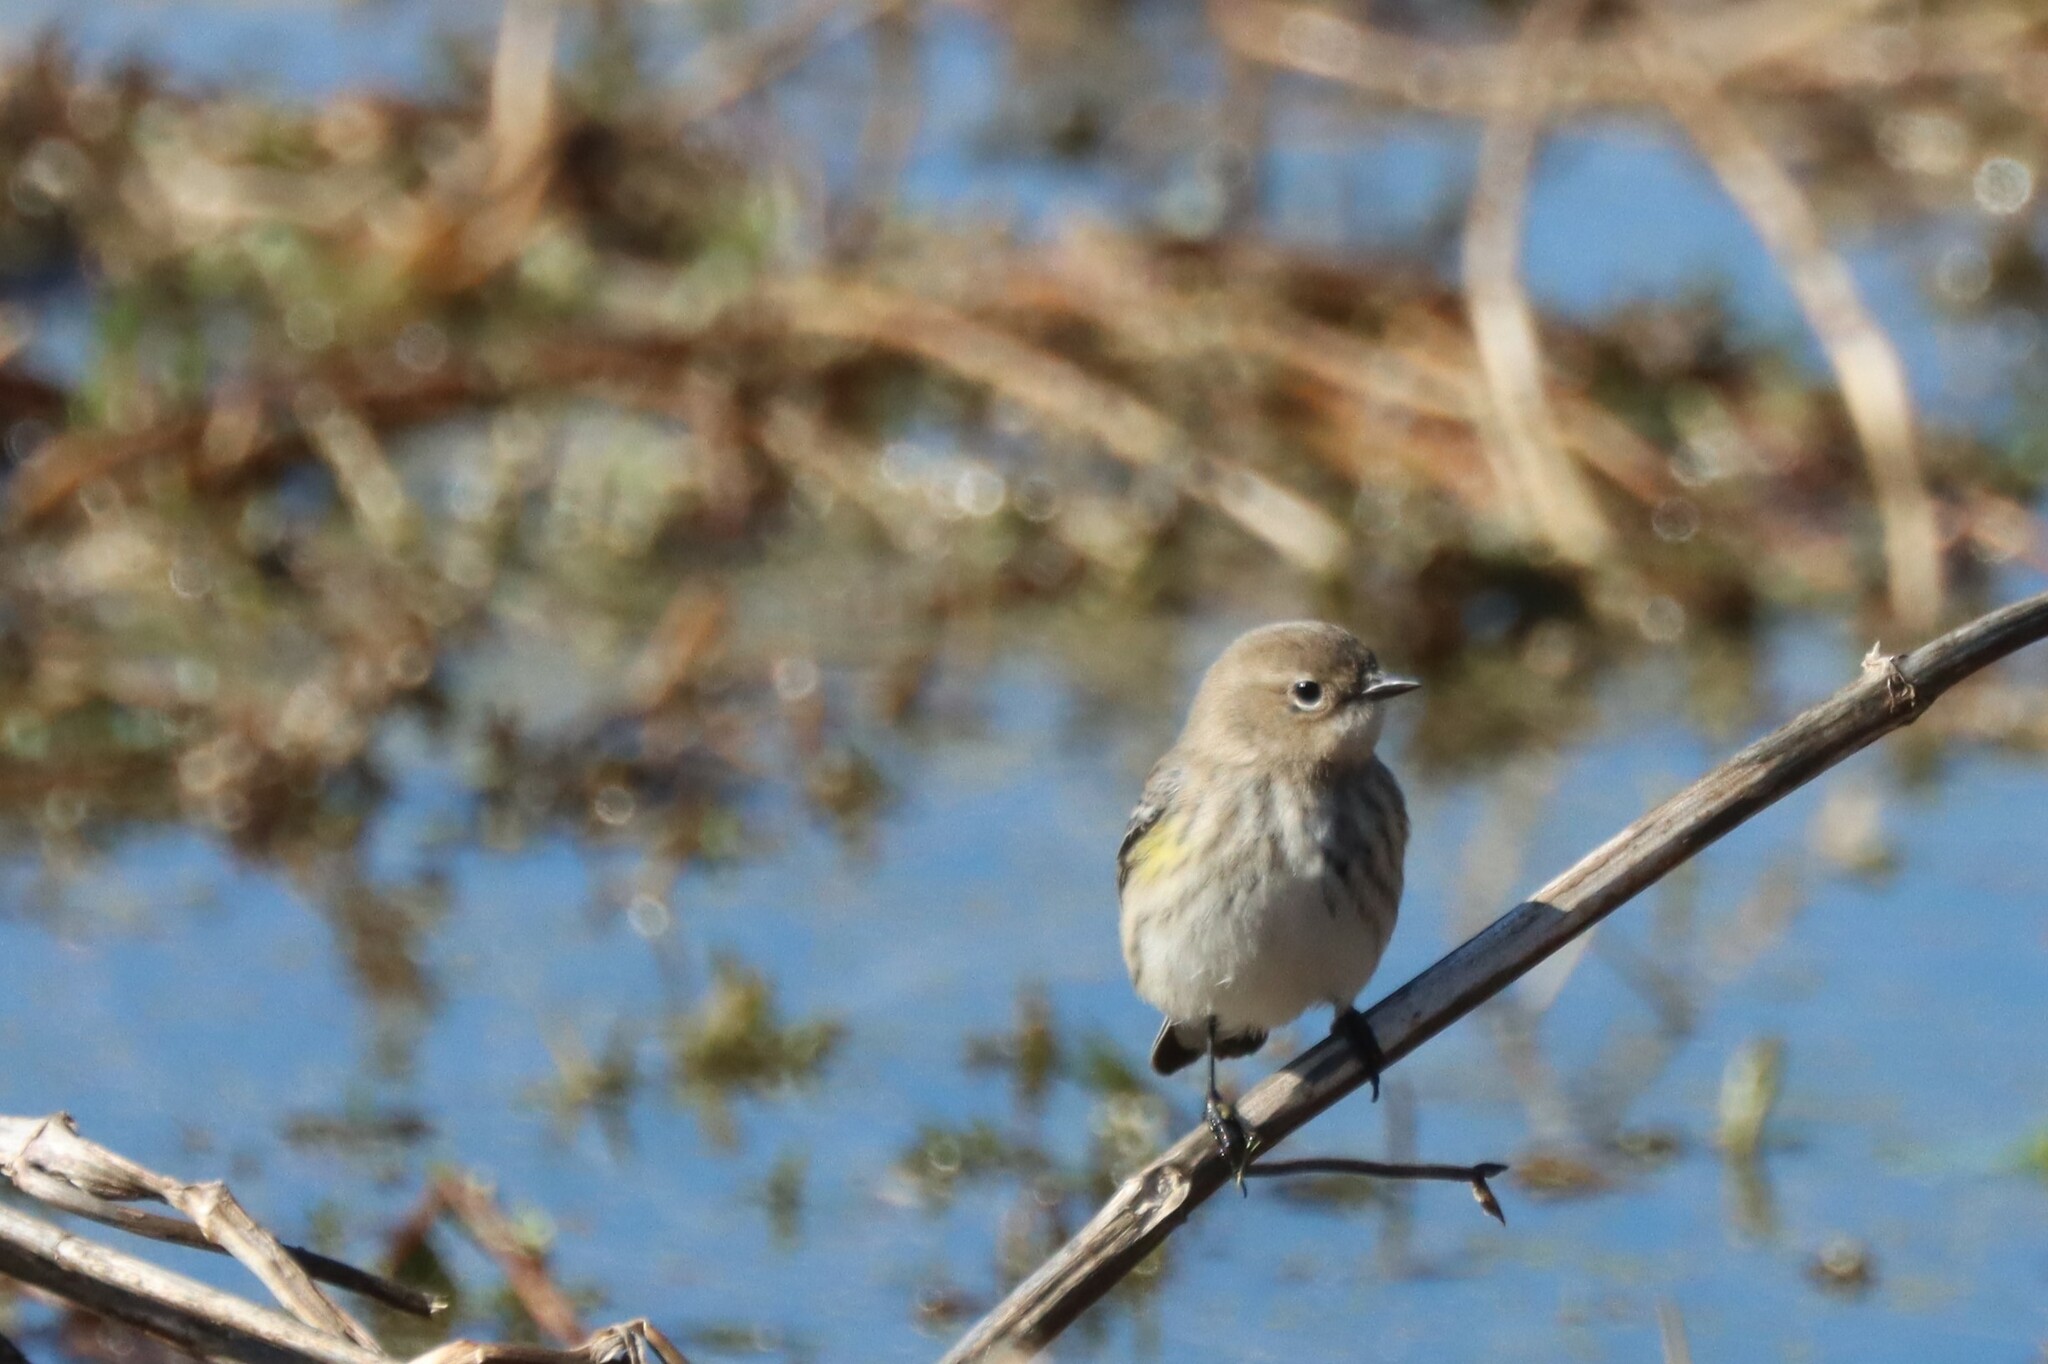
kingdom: Animalia
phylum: Chordata
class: Aves
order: Passeriformes
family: Parulidae
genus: Setophaga
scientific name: Setophaga coronata
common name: Myrtle warbler
